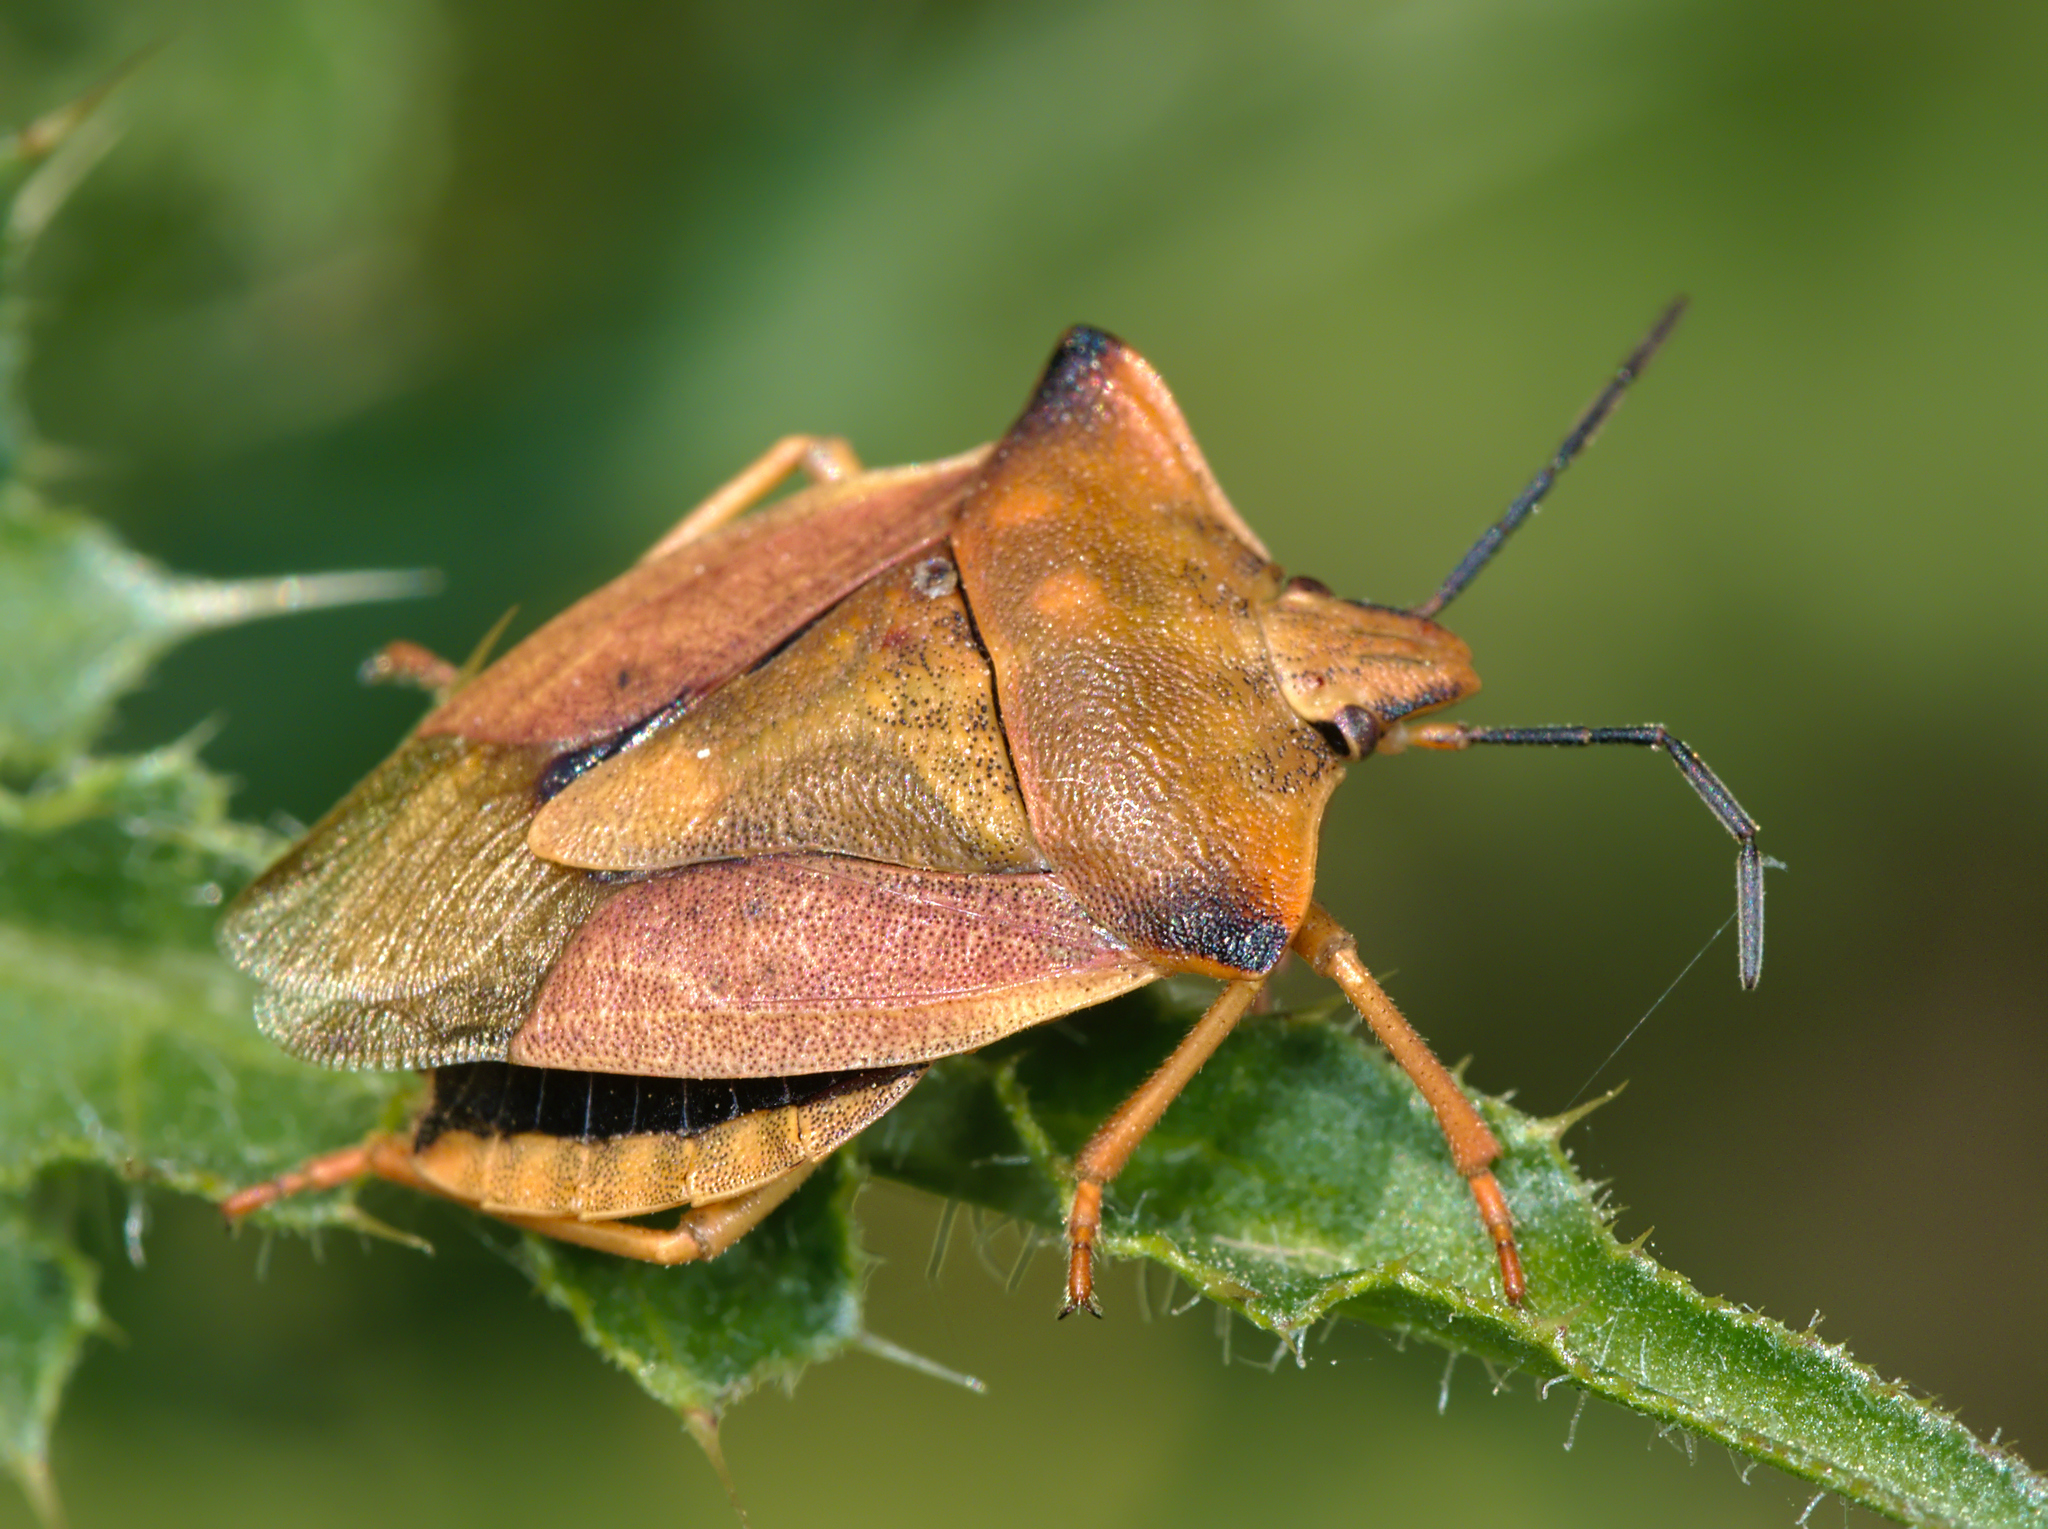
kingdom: Animalia
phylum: Arthropoda
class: Insecta
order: Hemiptera
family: Pentatomidae
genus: Carpocoris
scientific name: Carpocoris fuscispinus
